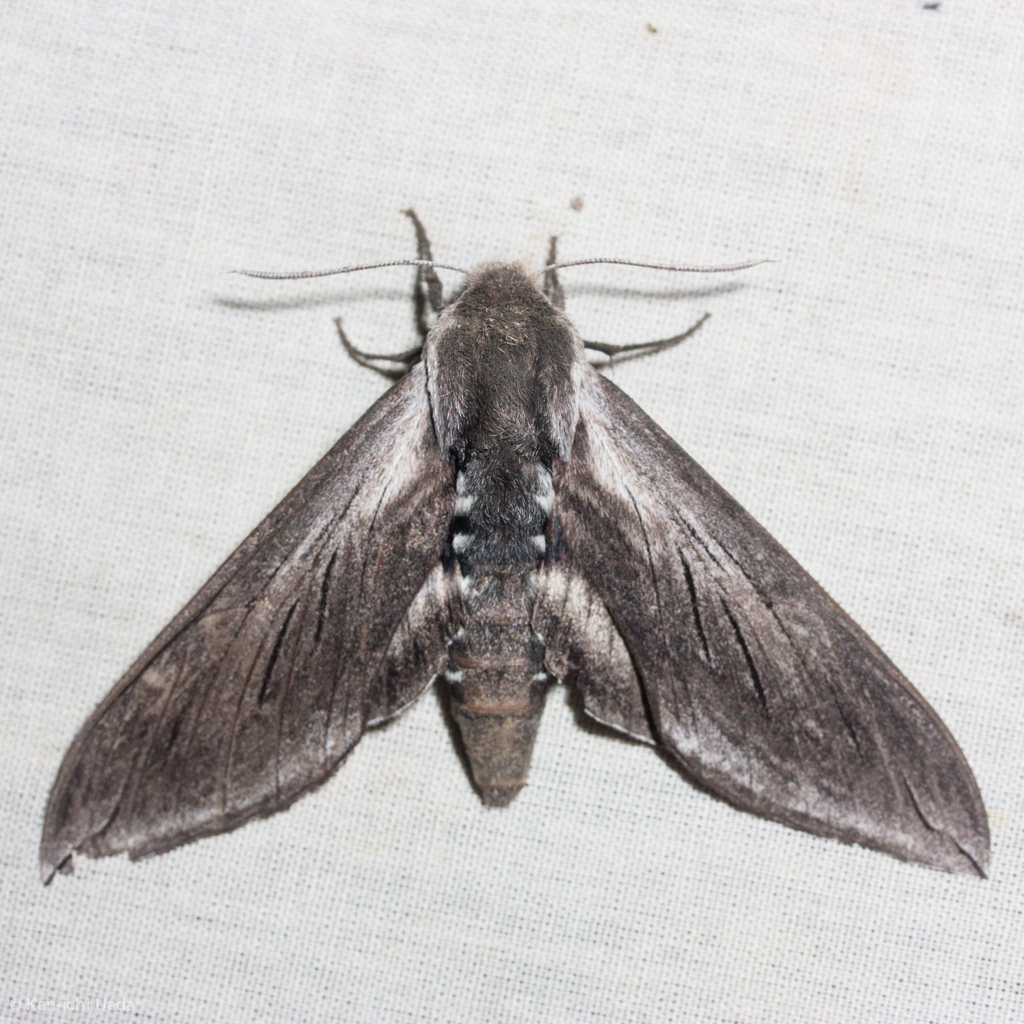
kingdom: Animalia
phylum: Arthropoda
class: Insecta
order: Lepidoptera
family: Sphingidae
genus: Sphinx
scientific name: Sphinx perelegans
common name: Elegant sphinx
